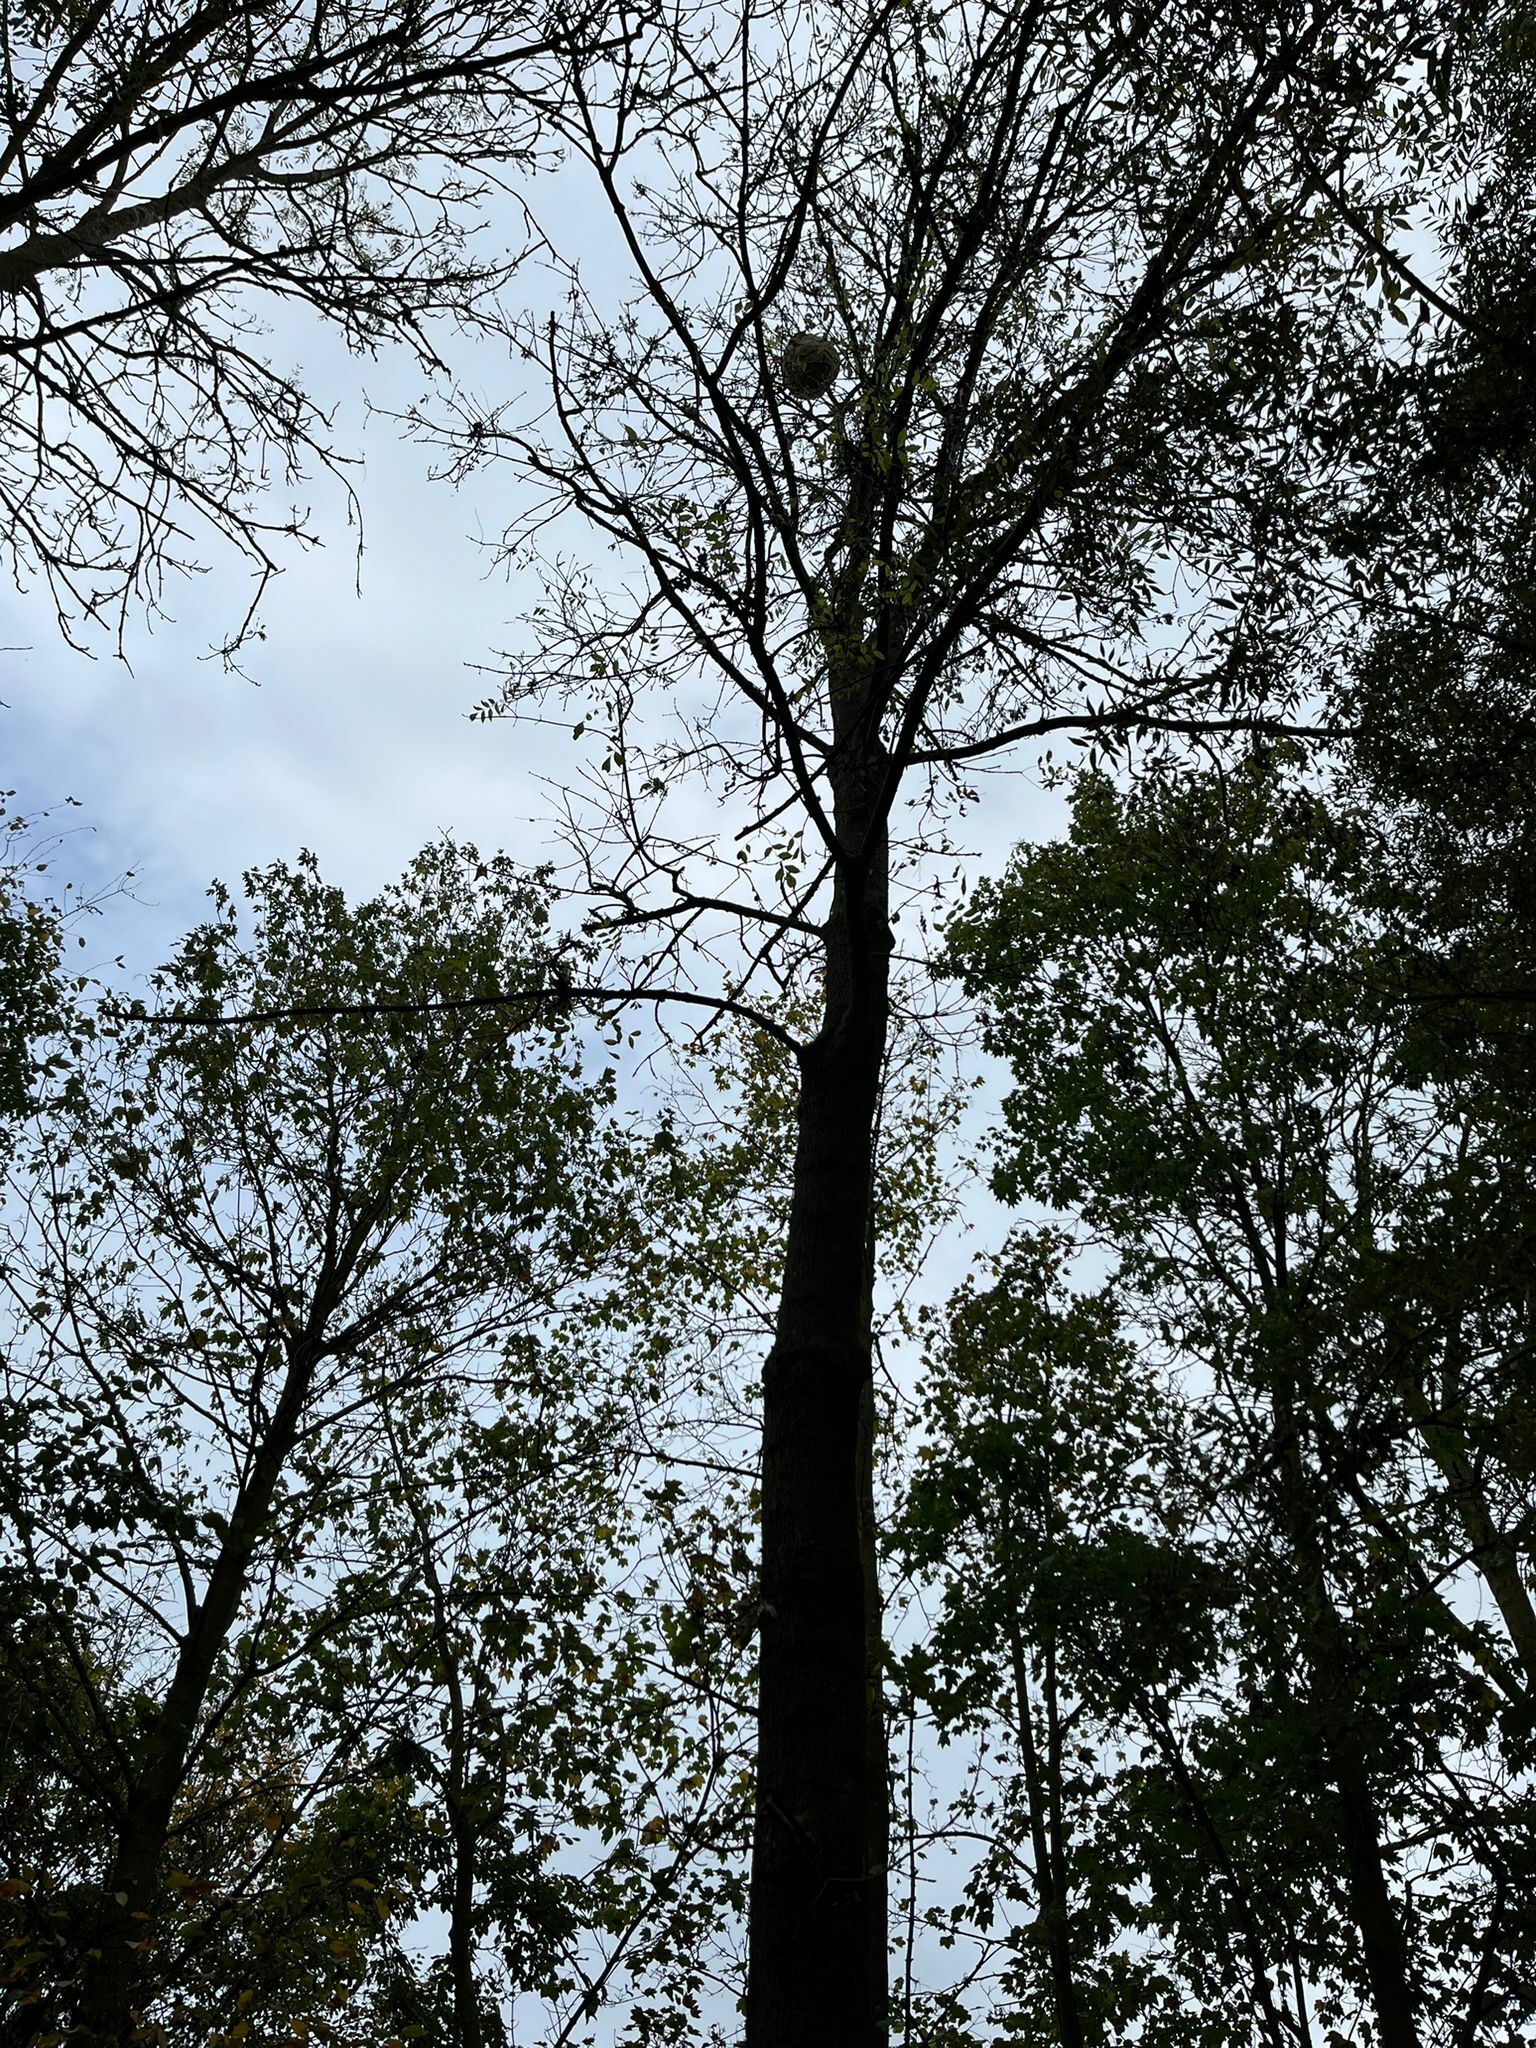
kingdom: Animalia
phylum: Arthropoda
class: Insecta
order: Hymenoptera
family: Vespidae
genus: Vespa
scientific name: Vespa velutina
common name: Asian hornet
